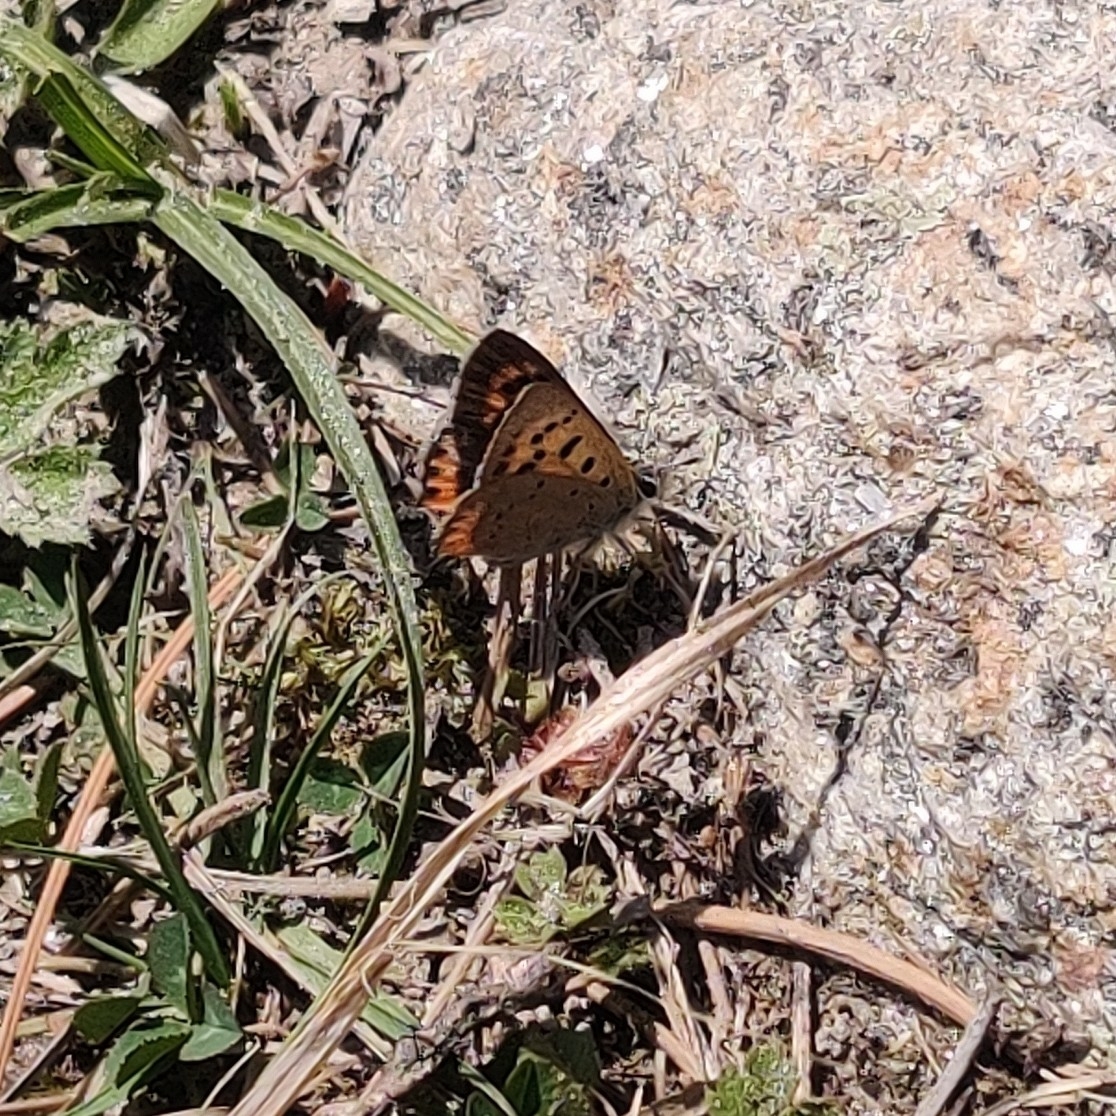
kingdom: Animalia
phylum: Arthropoda
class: Insecta
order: Lepidoptera
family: Lycaenidae
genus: Lycaena
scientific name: Lycaena phlaeas
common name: Small copper
